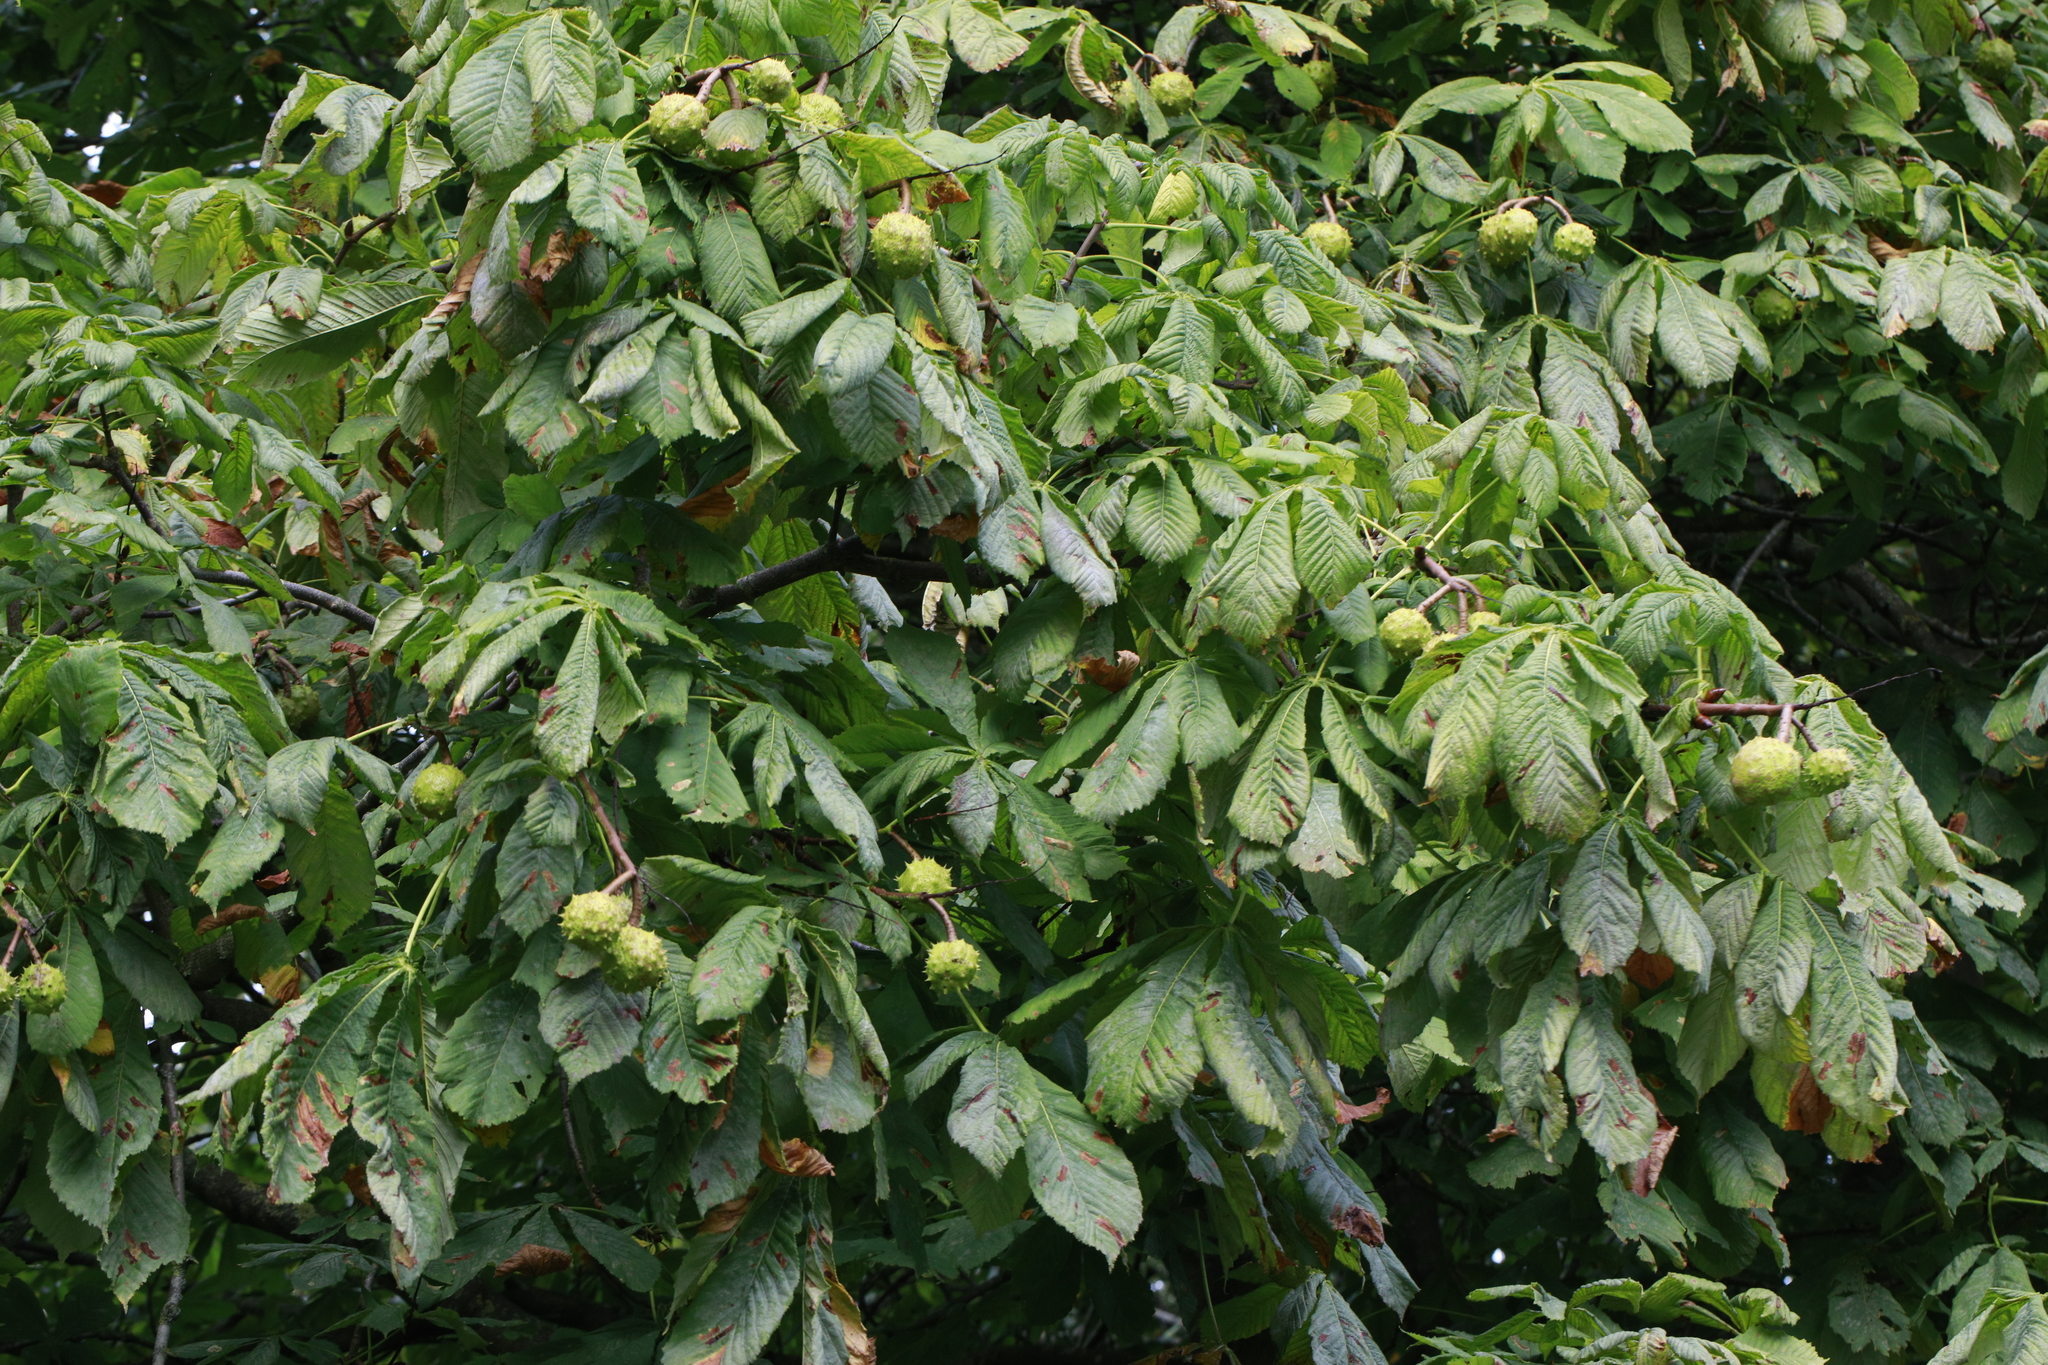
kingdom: Plantae
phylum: Tracheophyta
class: Magnoliopsida
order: Sapindales
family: Sapindaceae
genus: Aesculus
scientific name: Aesculus hippocastanum
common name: Horse-chestnut
